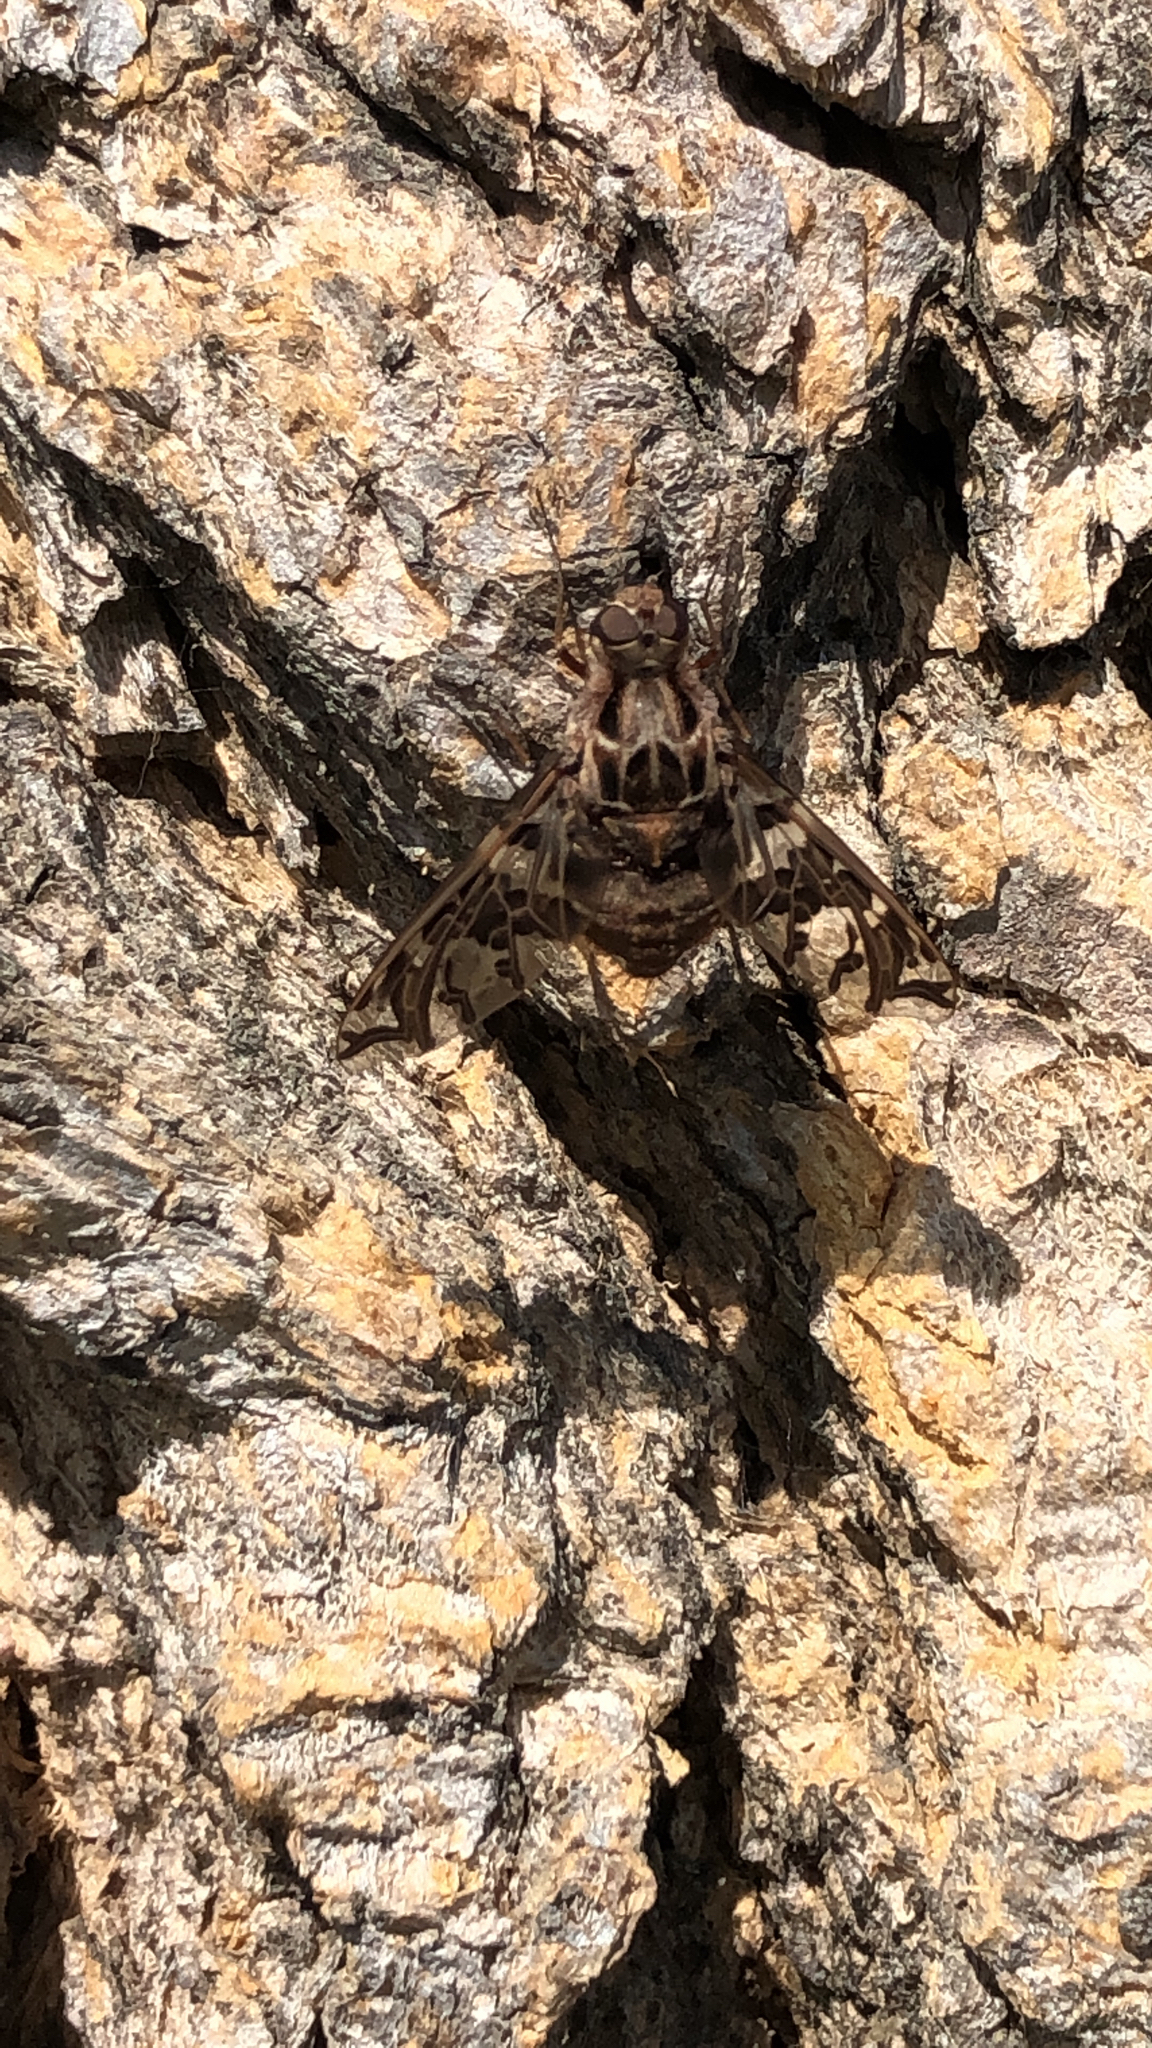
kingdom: Animalia
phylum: Arthropoda
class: Insecta
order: Diptera
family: Bombyliidae
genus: Xenox
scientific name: Xenox habrosus
